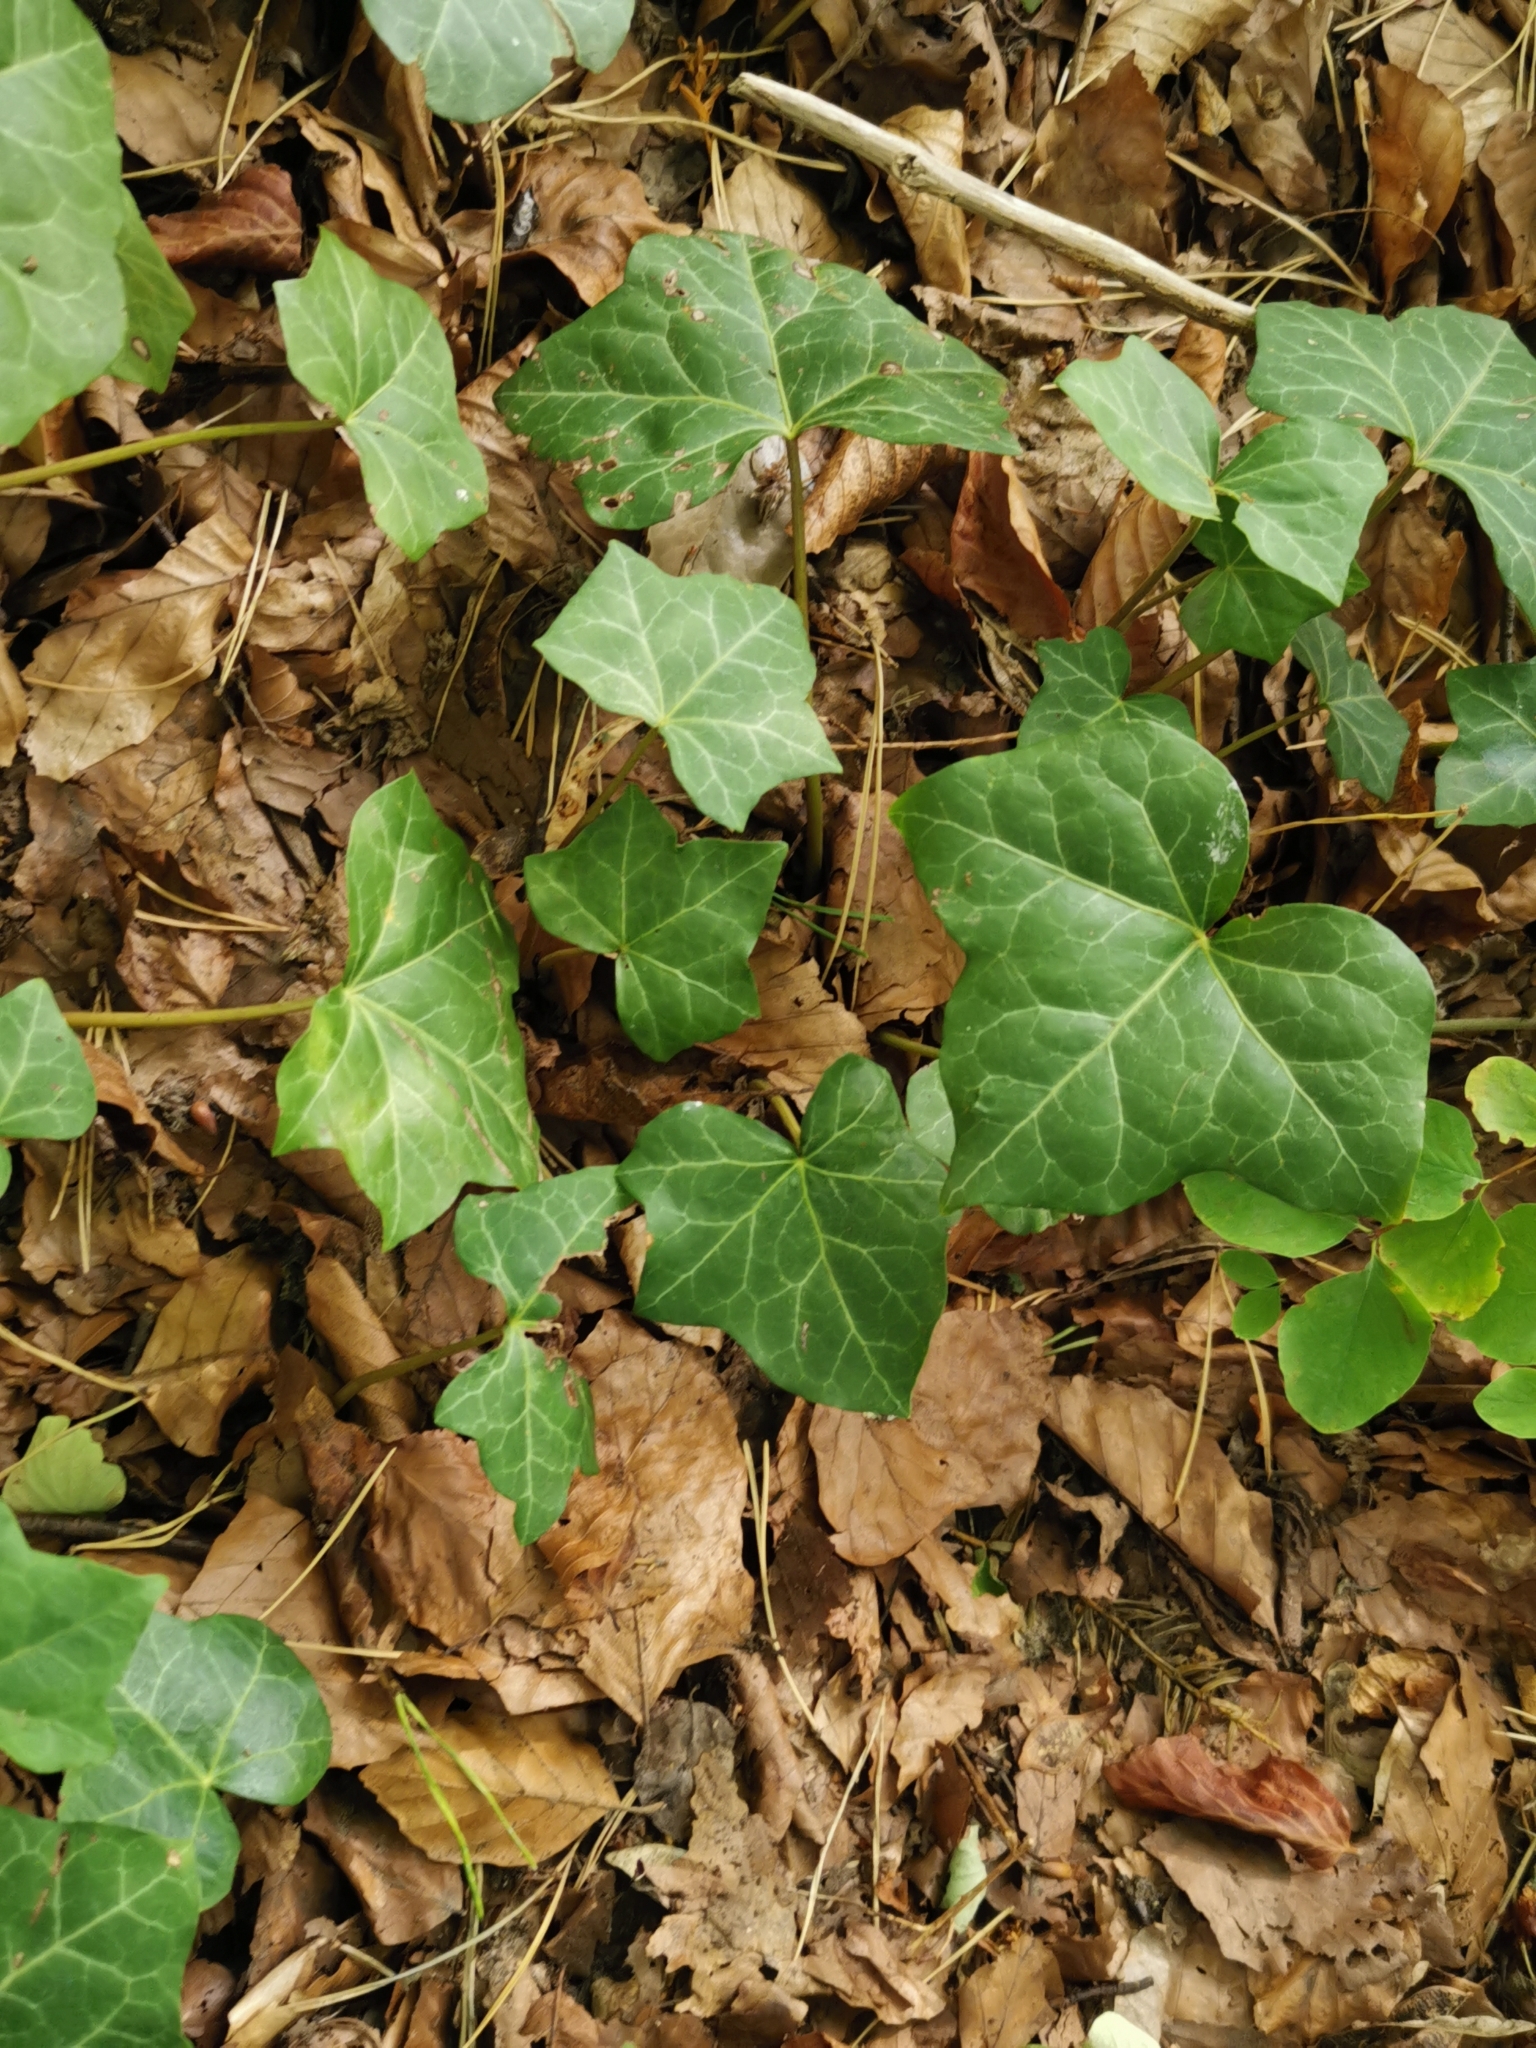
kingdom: Plantae
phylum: Tracheophyta
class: Magnoliopsida
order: Apiales
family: Araliaceae
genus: Hedera
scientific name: Hedera helix
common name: Ivy
